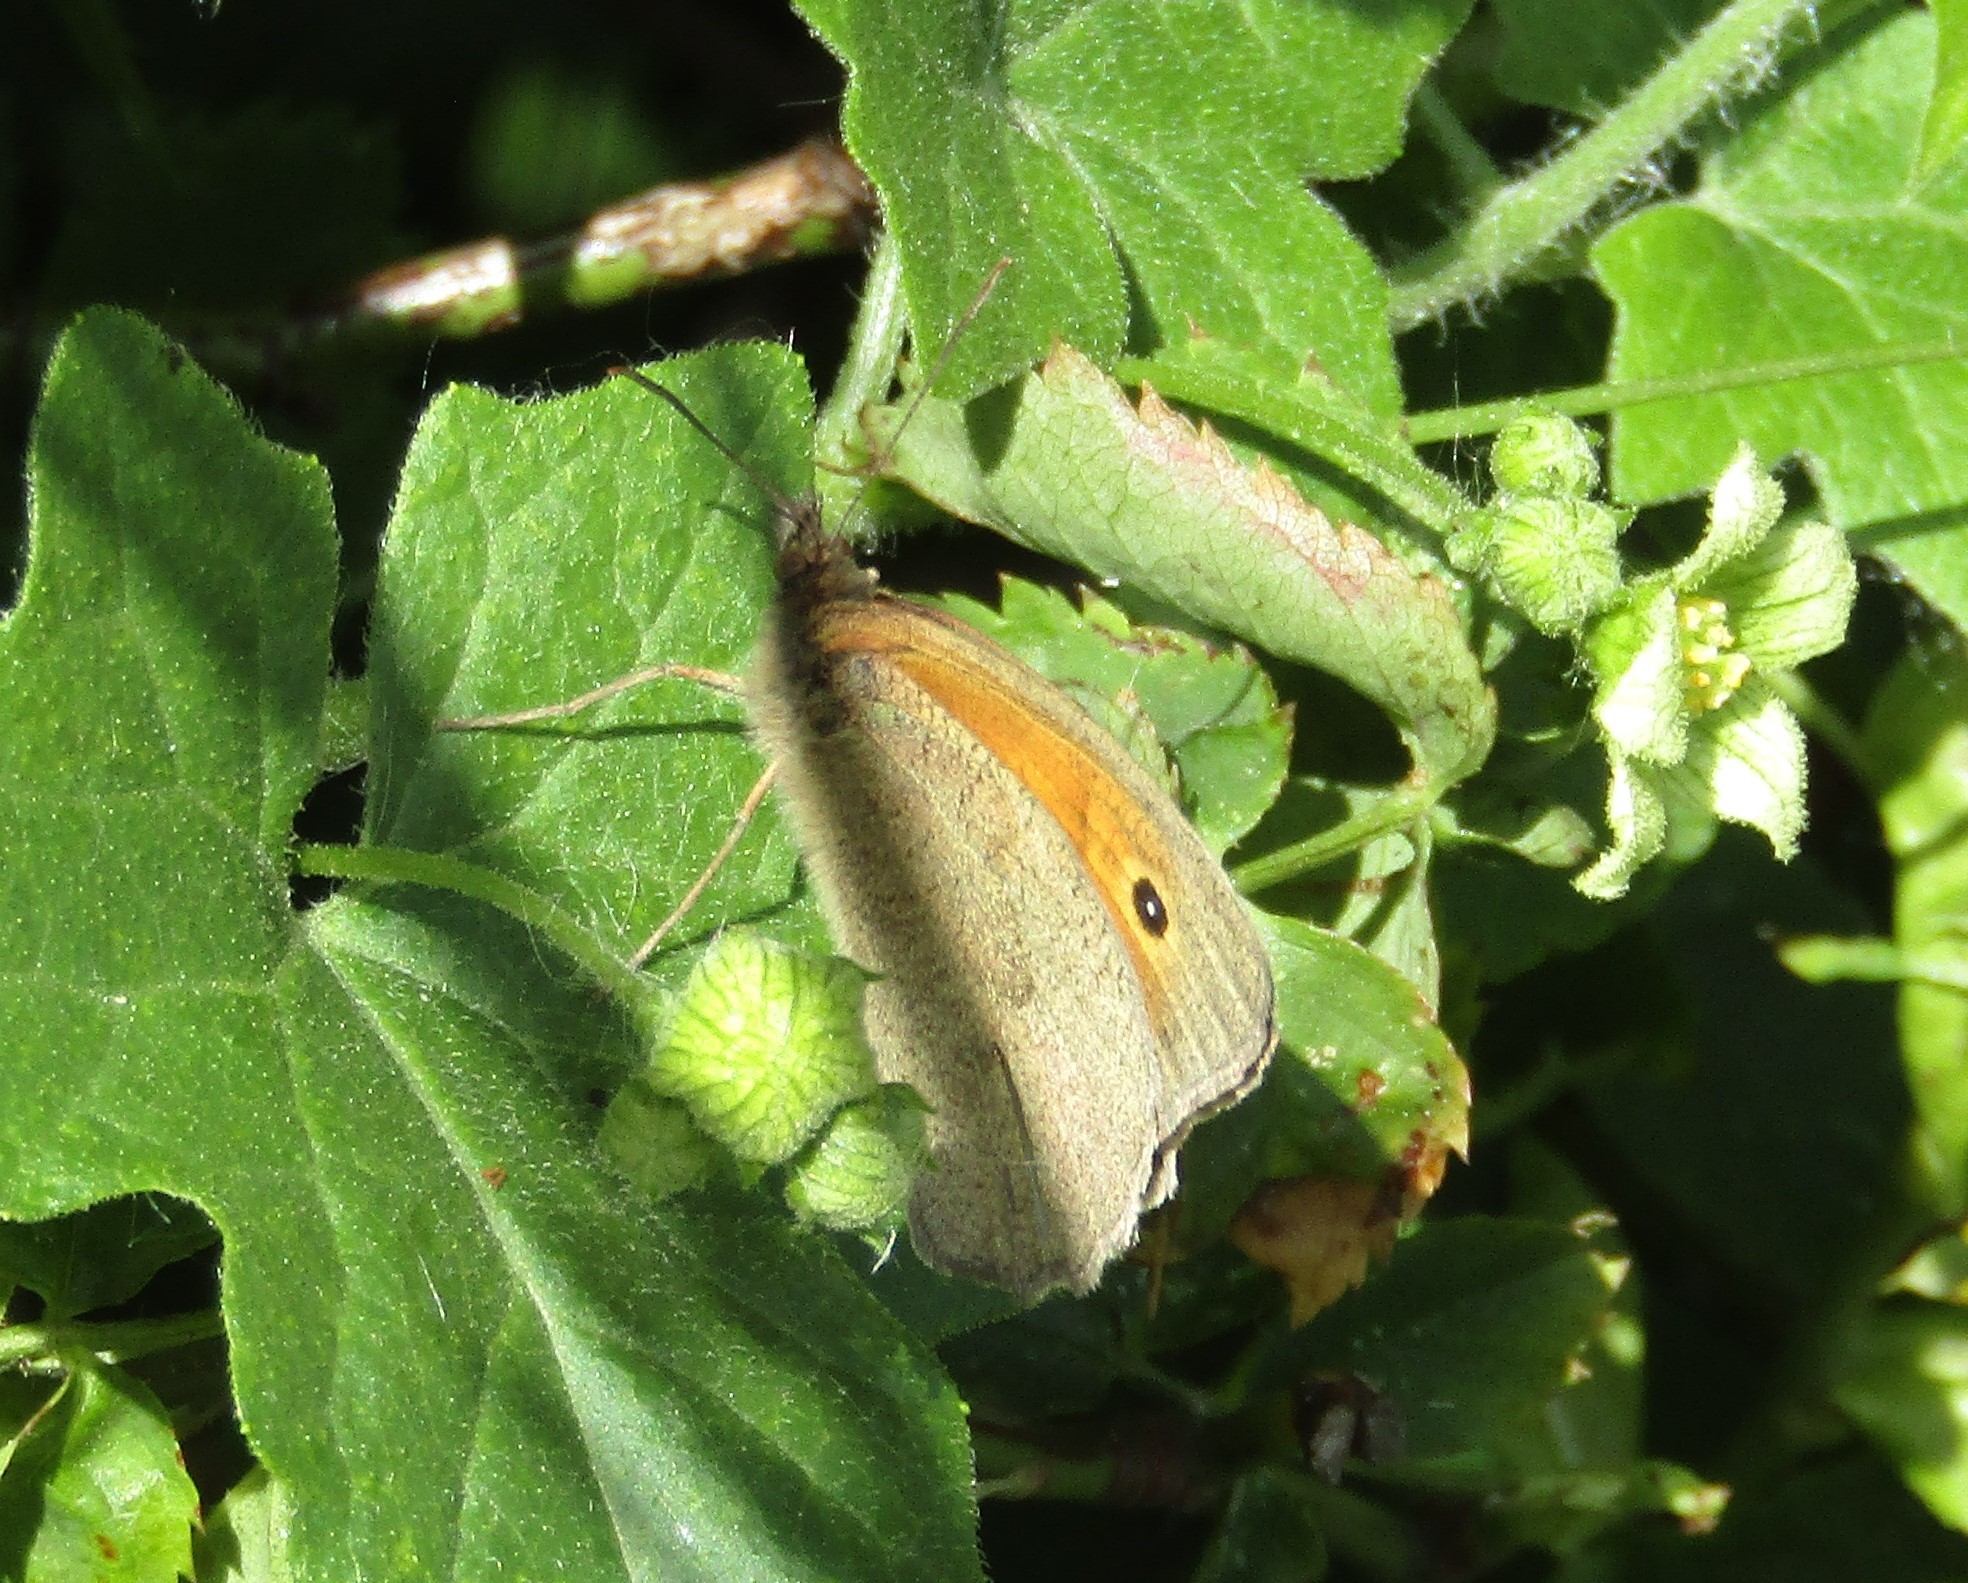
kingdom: Animalia
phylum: Arthropoda
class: Insecta
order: Lepidoptera
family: Nymphalidae
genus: Maniola
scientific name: Maniola jurtina
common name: Meadow brown
